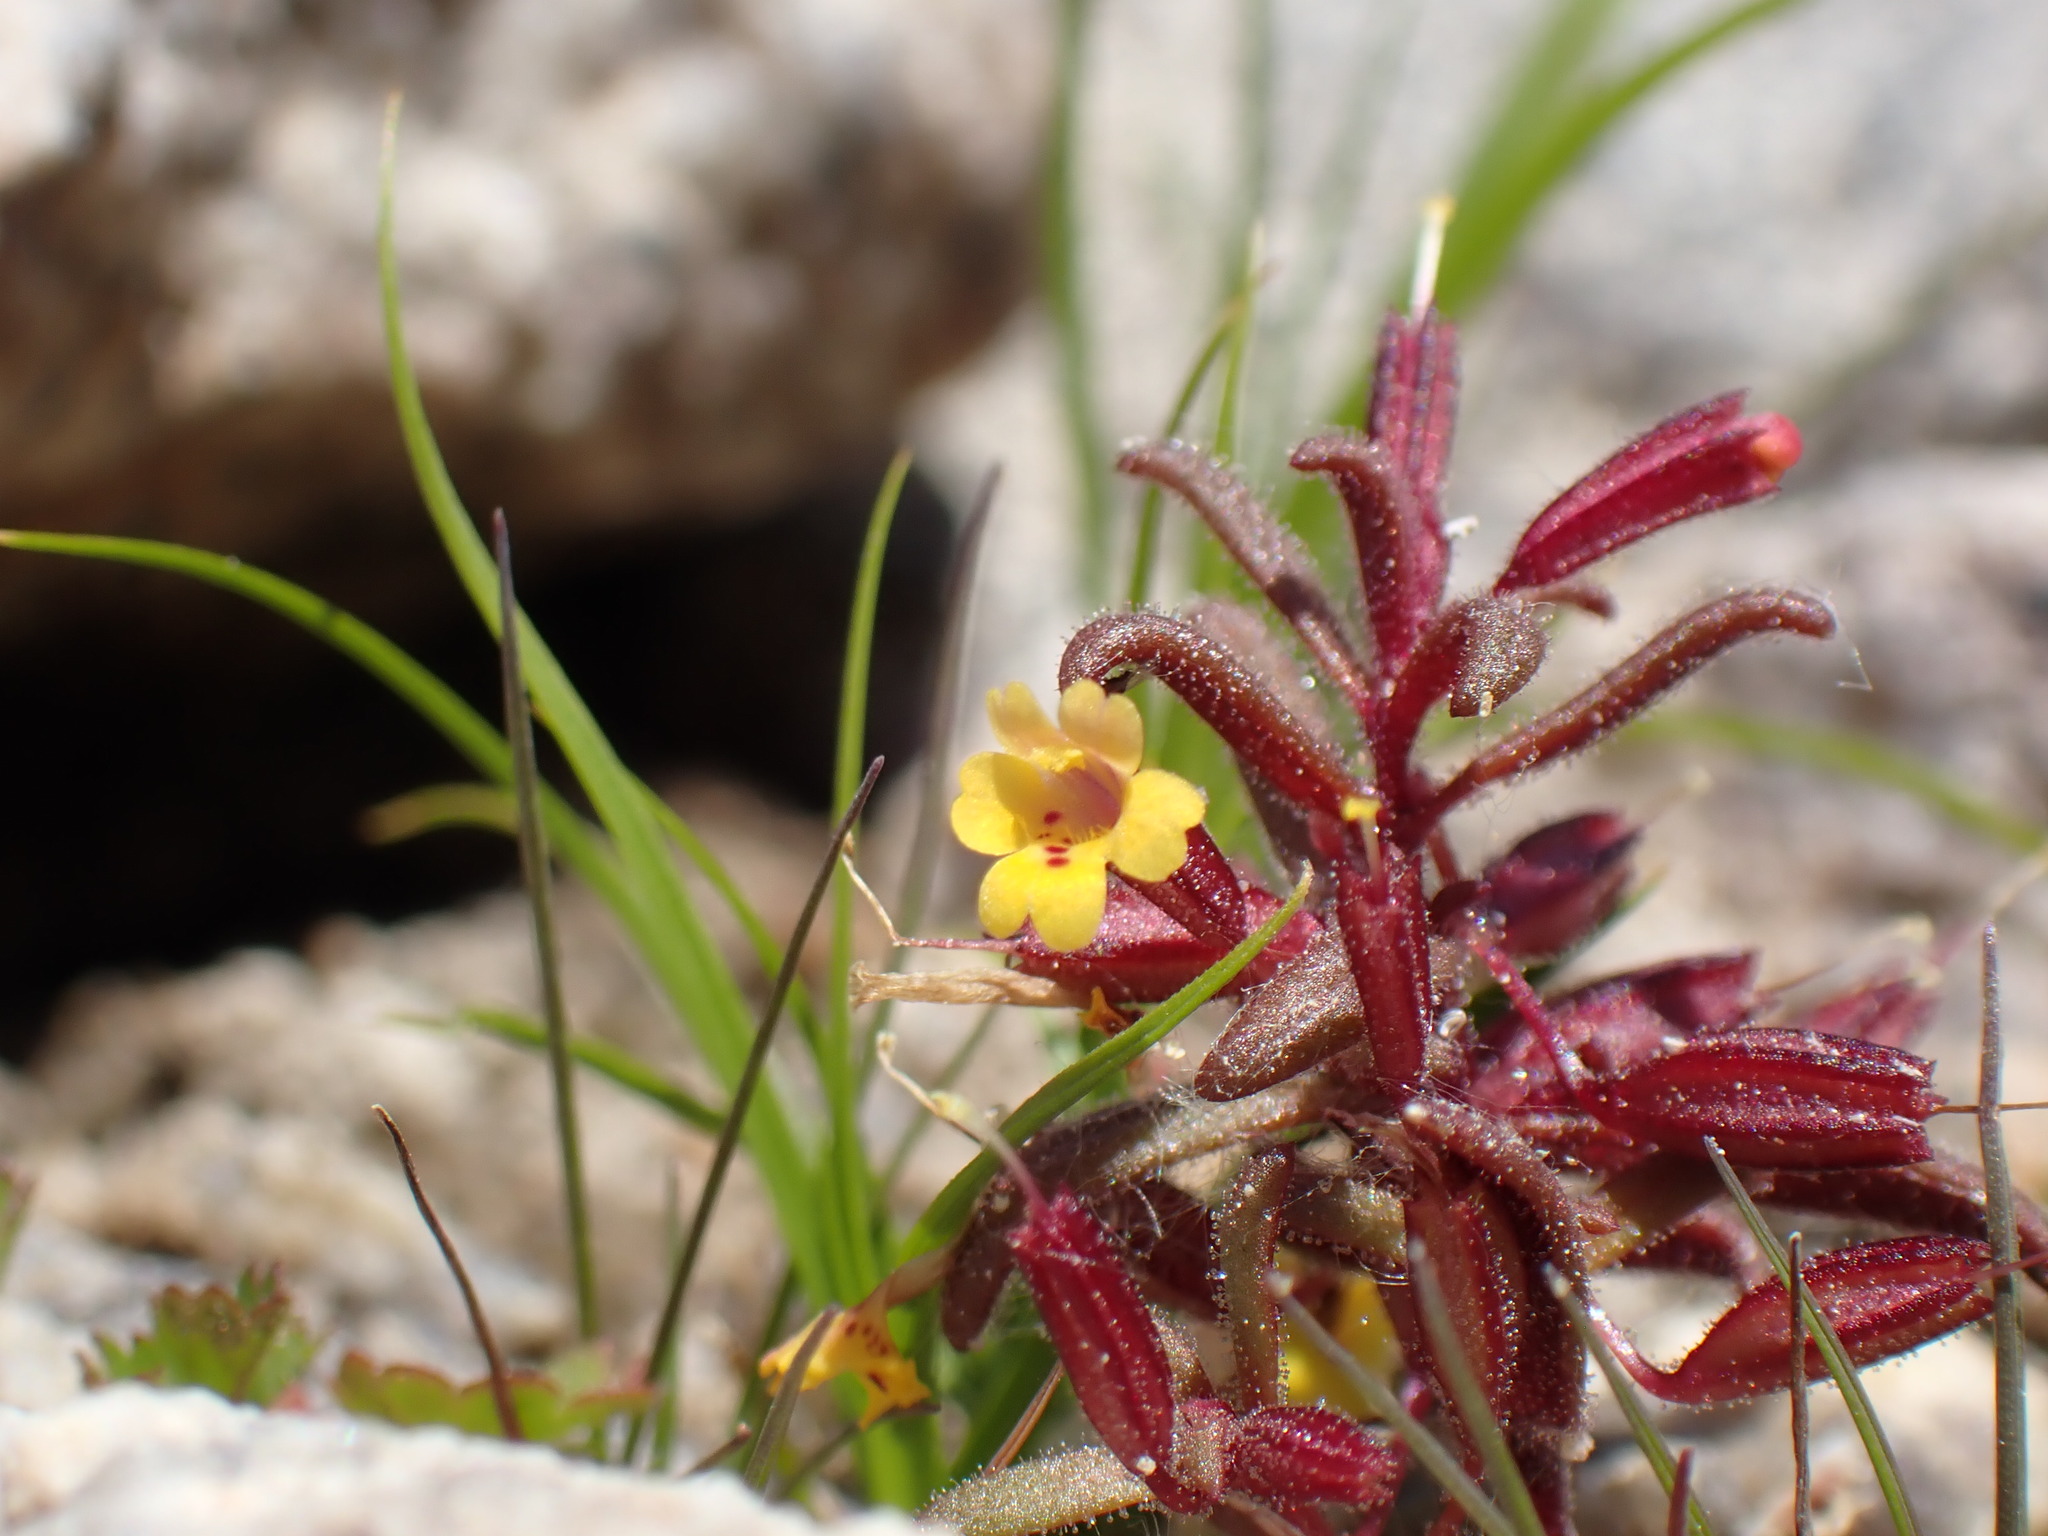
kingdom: Plantae
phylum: Tracheophyta
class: Magnoliopsida
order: Lamiales
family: Phrymaceae
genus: Erythranthe
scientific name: Erythranthe suksdorfii
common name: Suksdorf's monkeyflower
